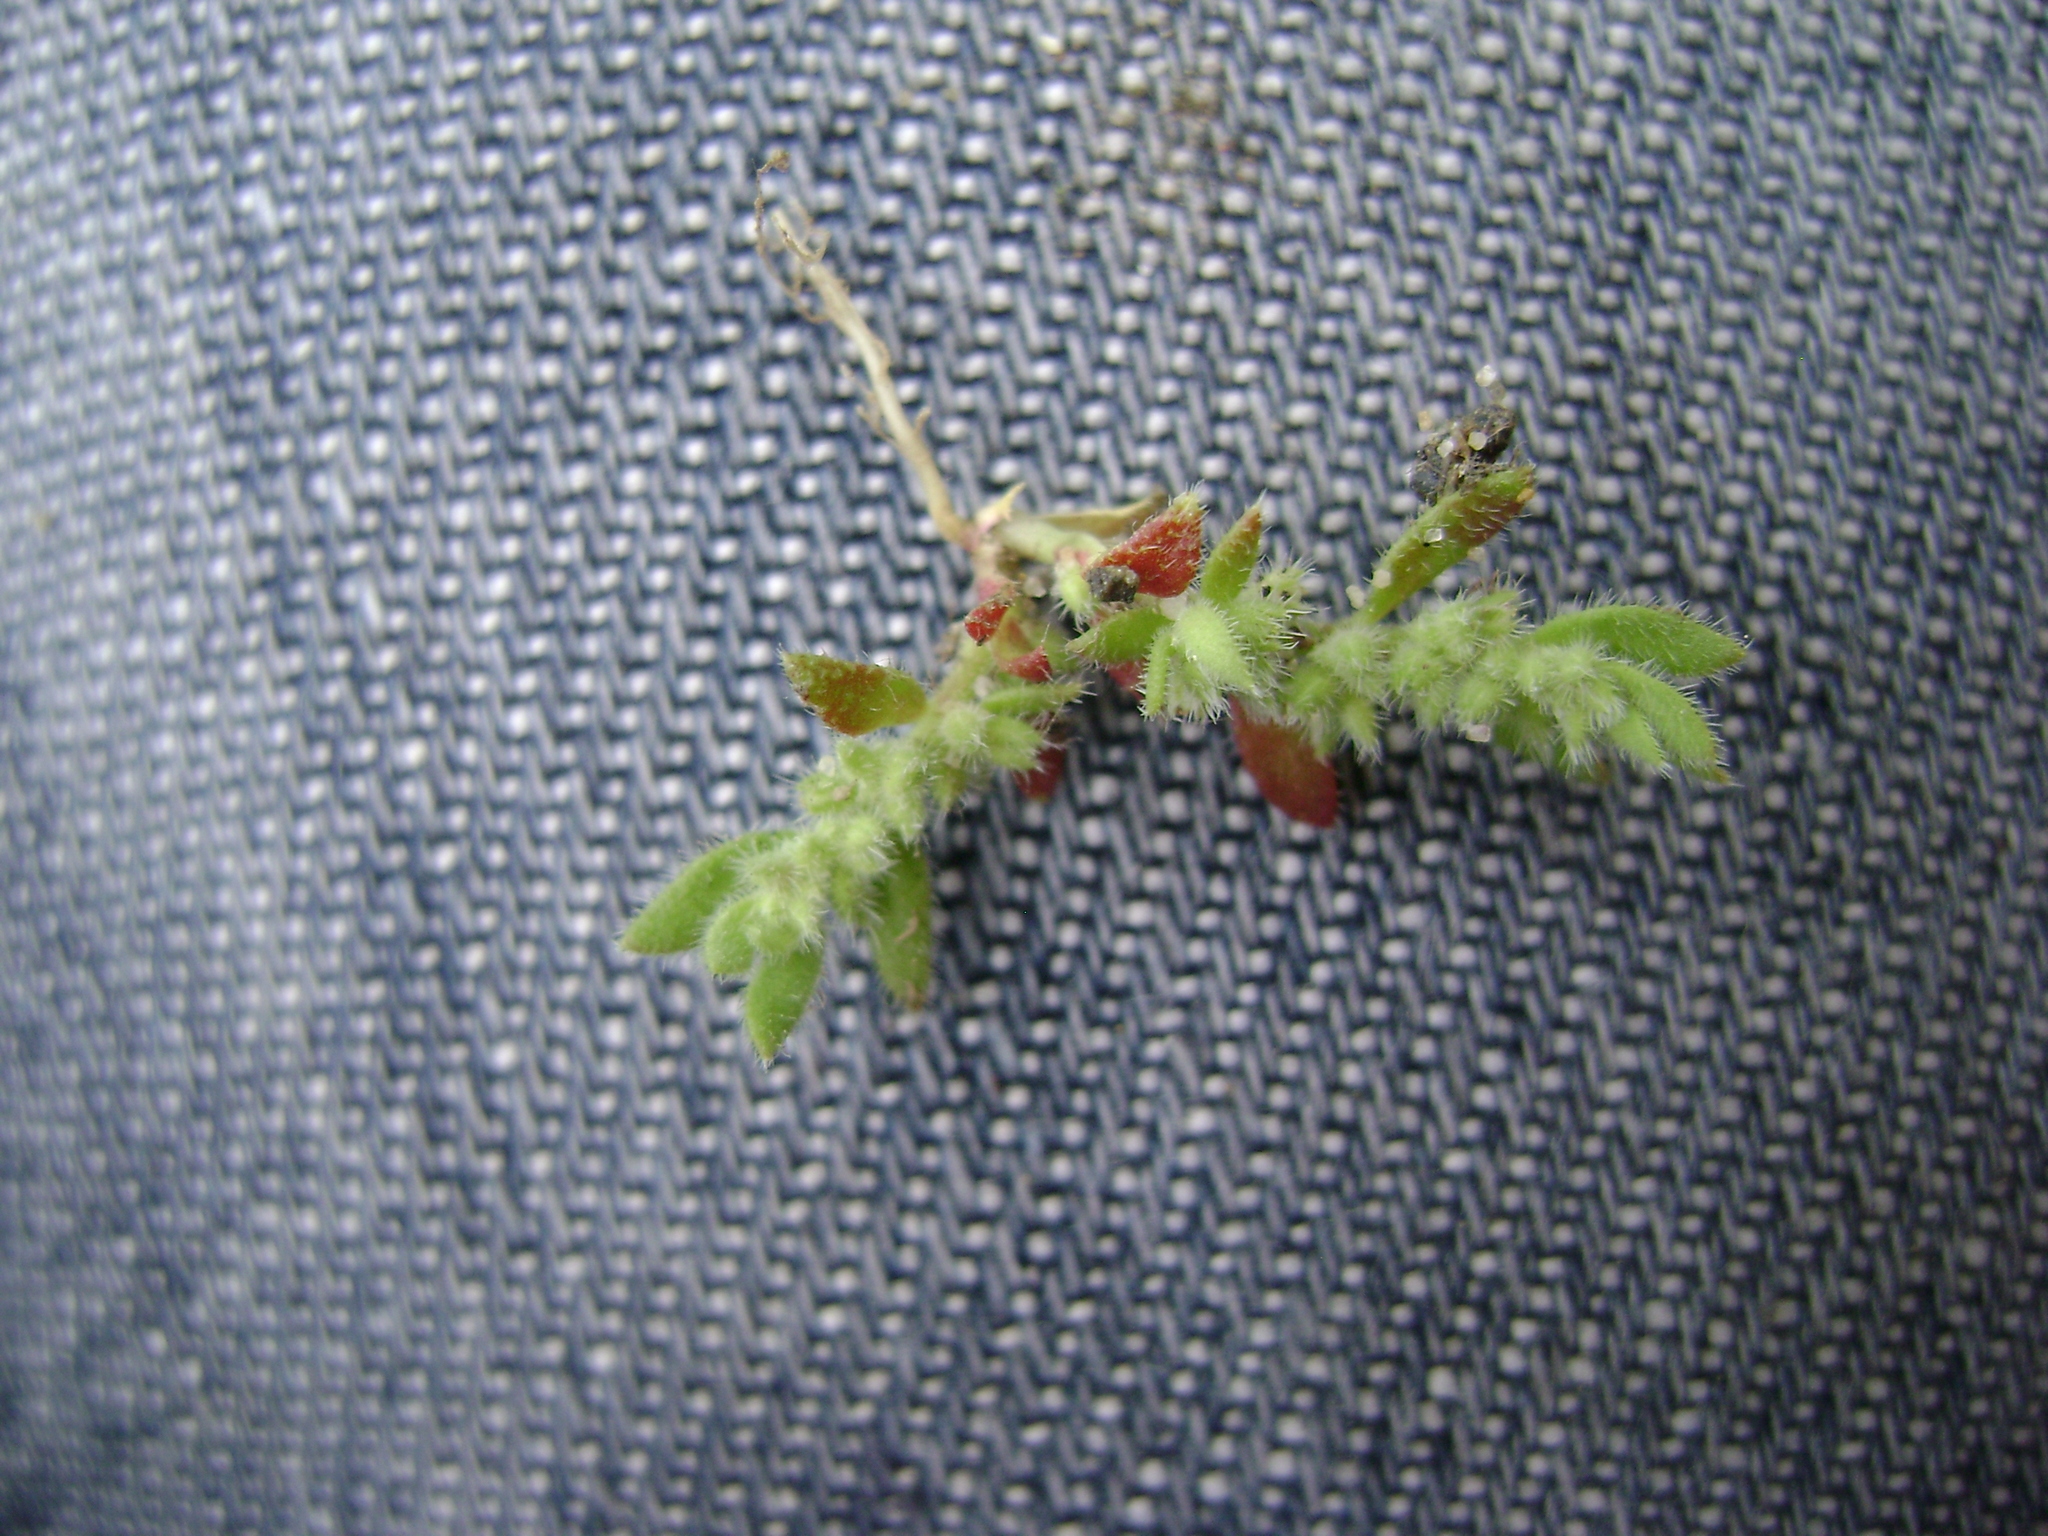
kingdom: Plantae
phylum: Tracheophyta
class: Magnoliopsida
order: Caryophyllales
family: Caryophyllaceae
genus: Herniaria
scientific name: Herniaria hirsuta
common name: Hairy rupturewort
